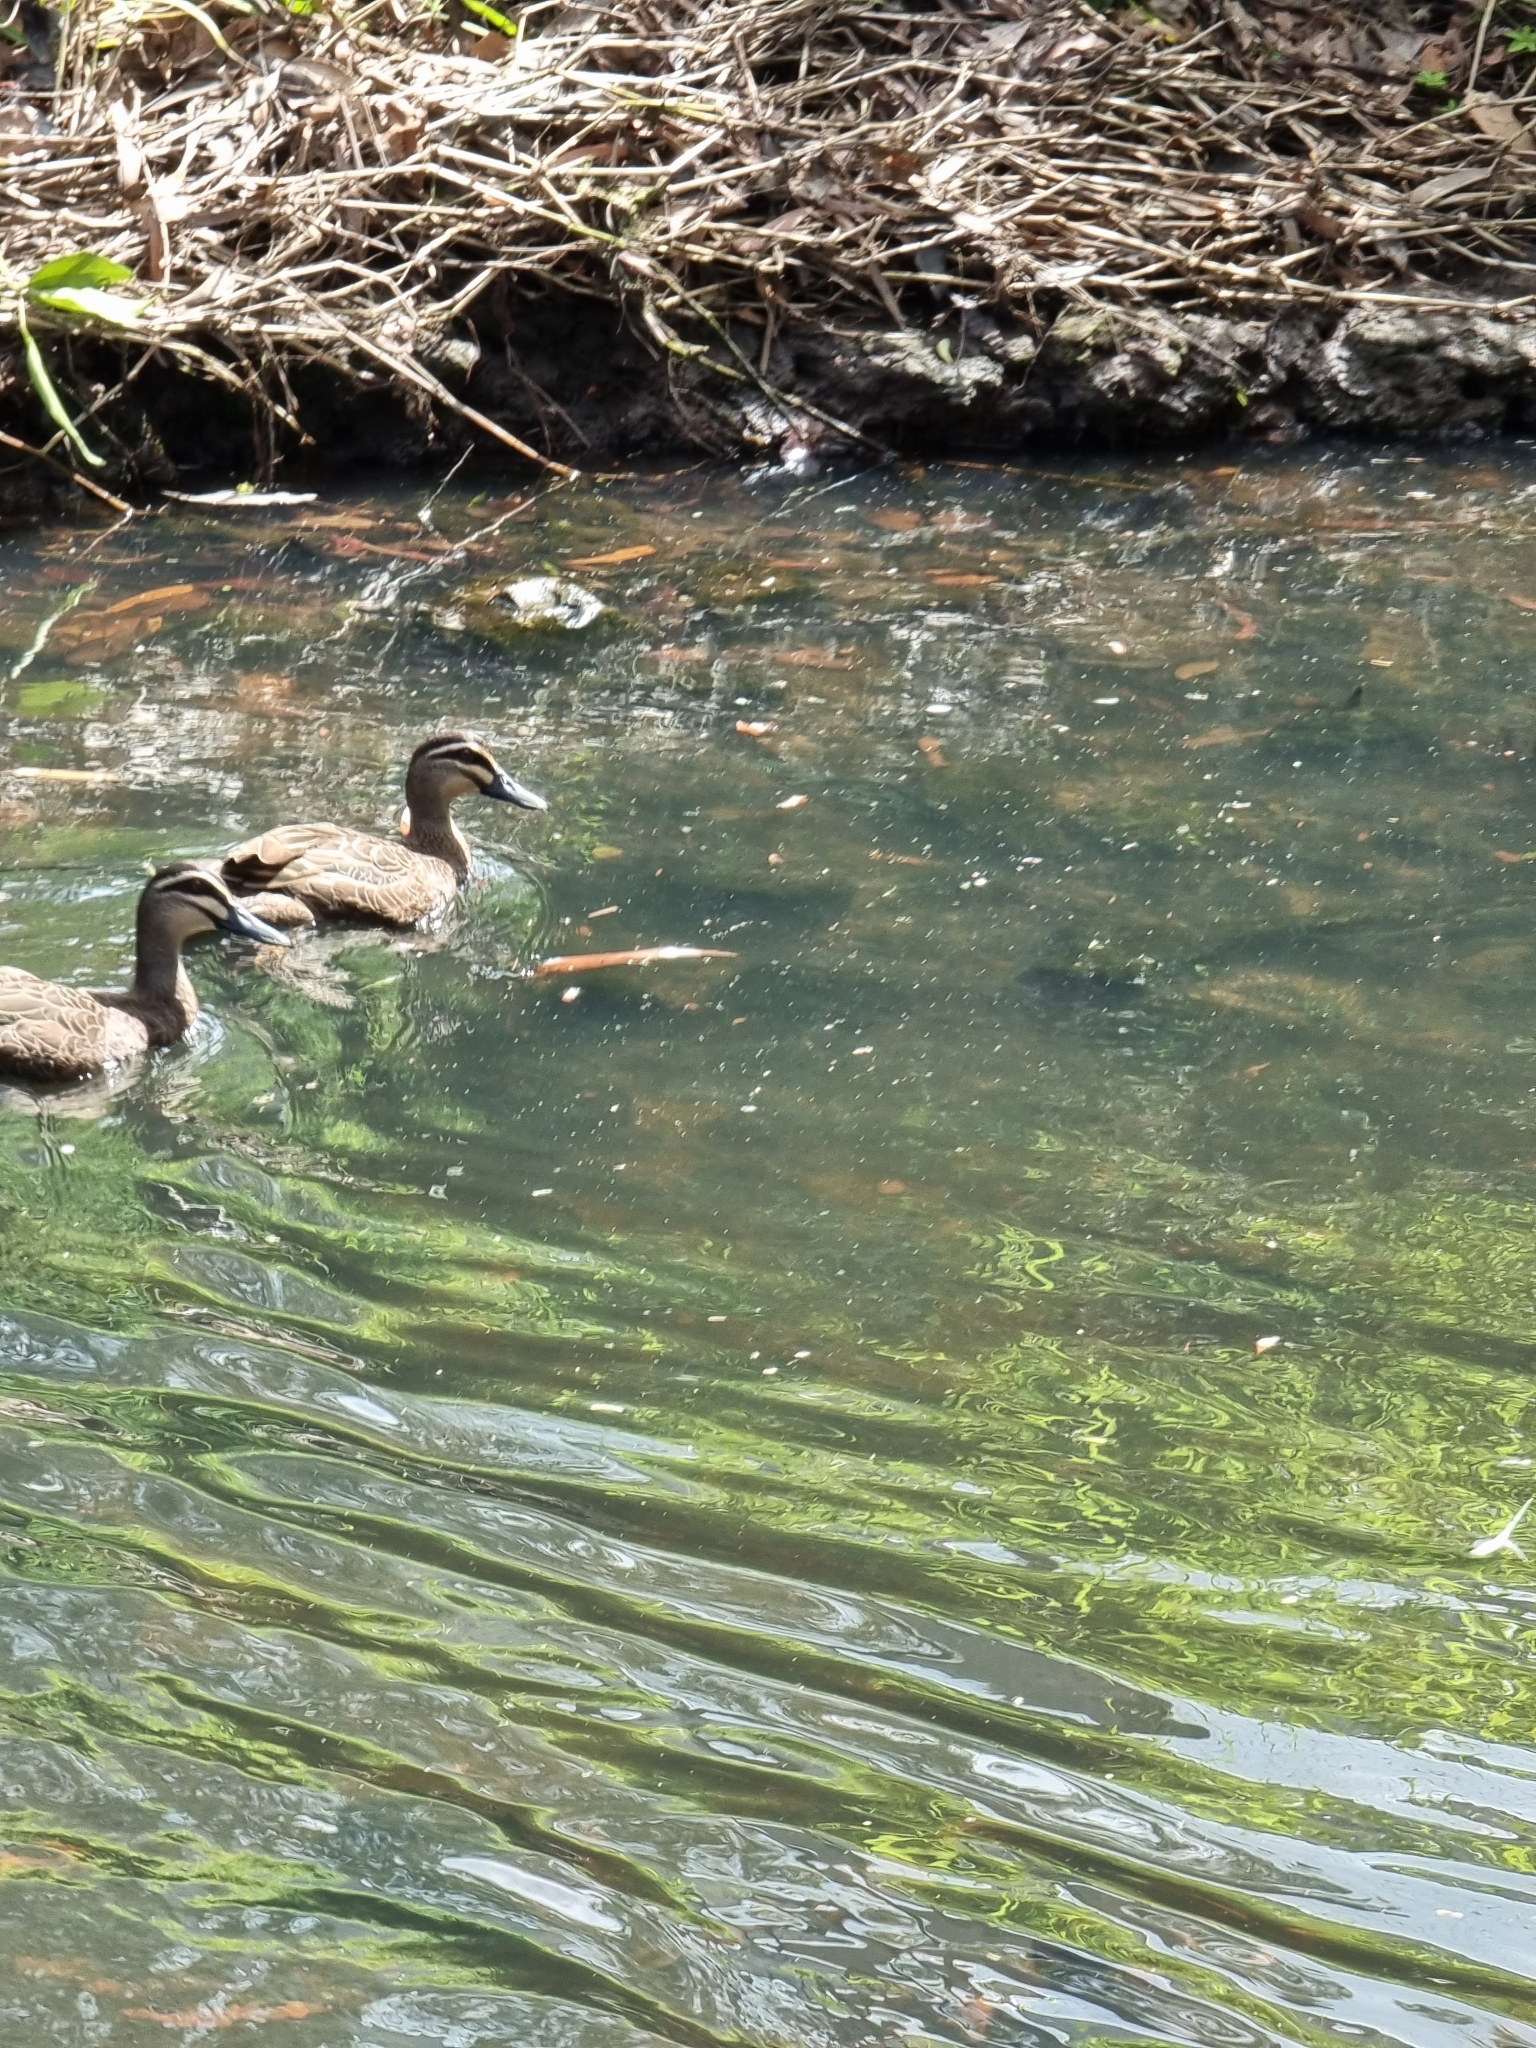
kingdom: Animalia
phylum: Chordata
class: Aves
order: Anseriformes
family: Anatidae
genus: Anas
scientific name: Anas superciliosa
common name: Pacific black duck
